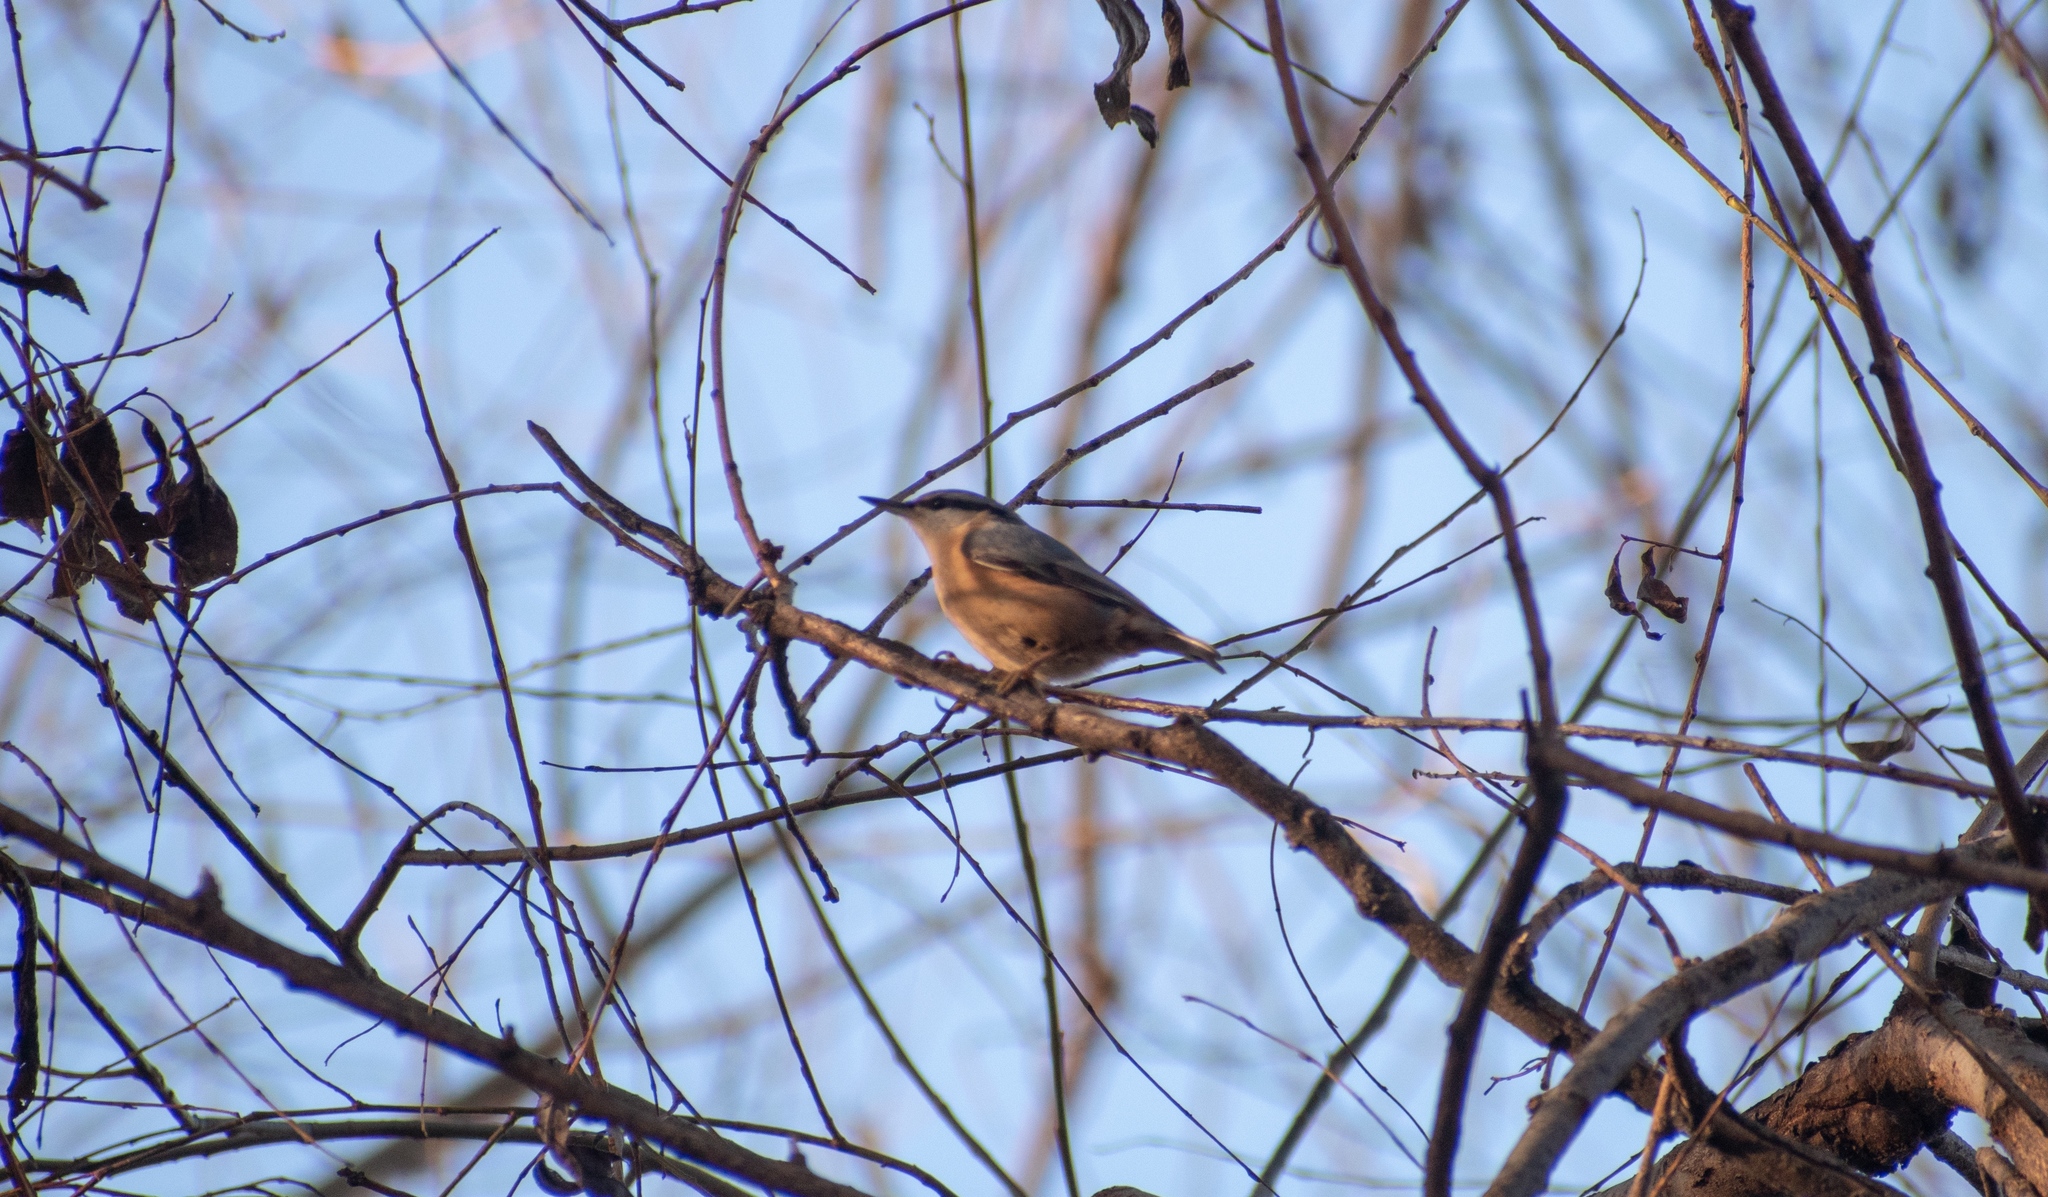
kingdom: Animalia
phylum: Chordata
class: Aves
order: Passeriformes
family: Sittidae
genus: Sitta
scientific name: Sitta europaea
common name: Eurasian nuthatch
